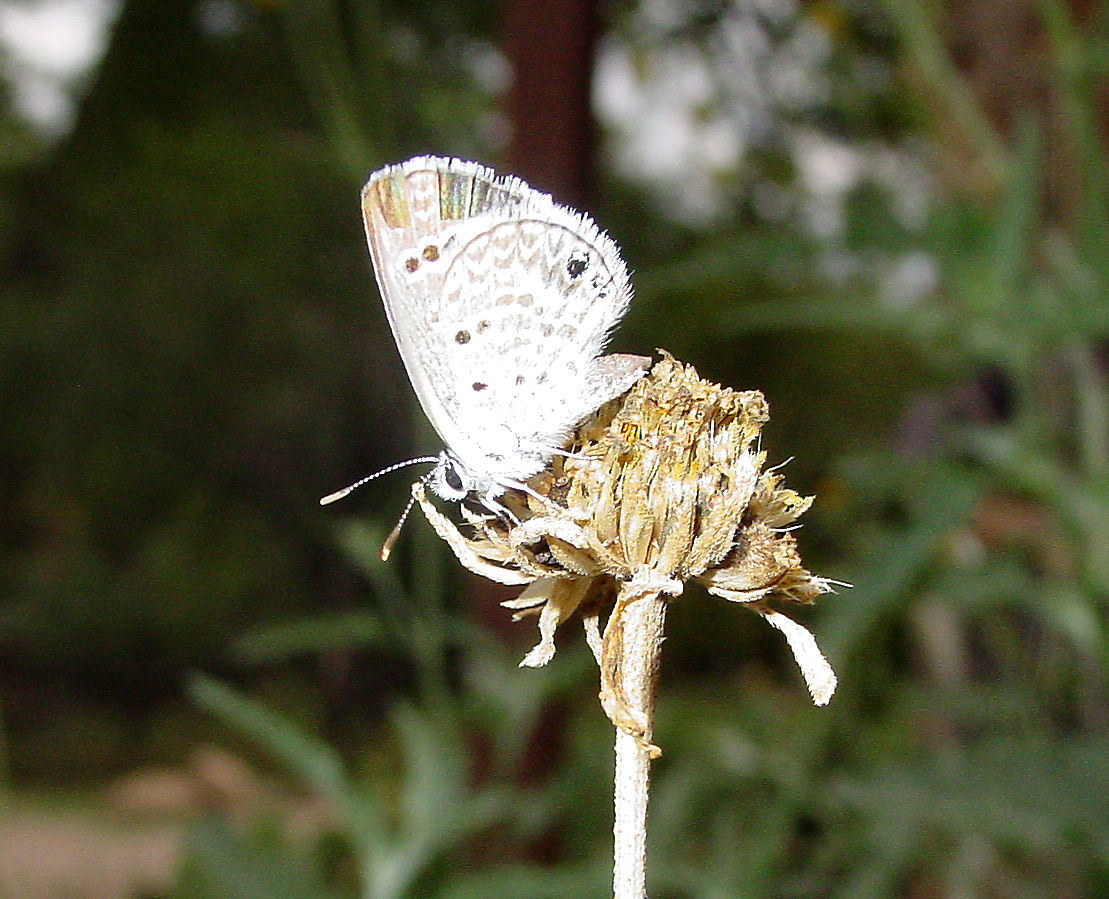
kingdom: Animalia
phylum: Arthropoda
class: Insecta
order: Lepidoptera
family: Lycaenidae
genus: Echinargus
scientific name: Echinargus isola
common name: Reakirt's blue
